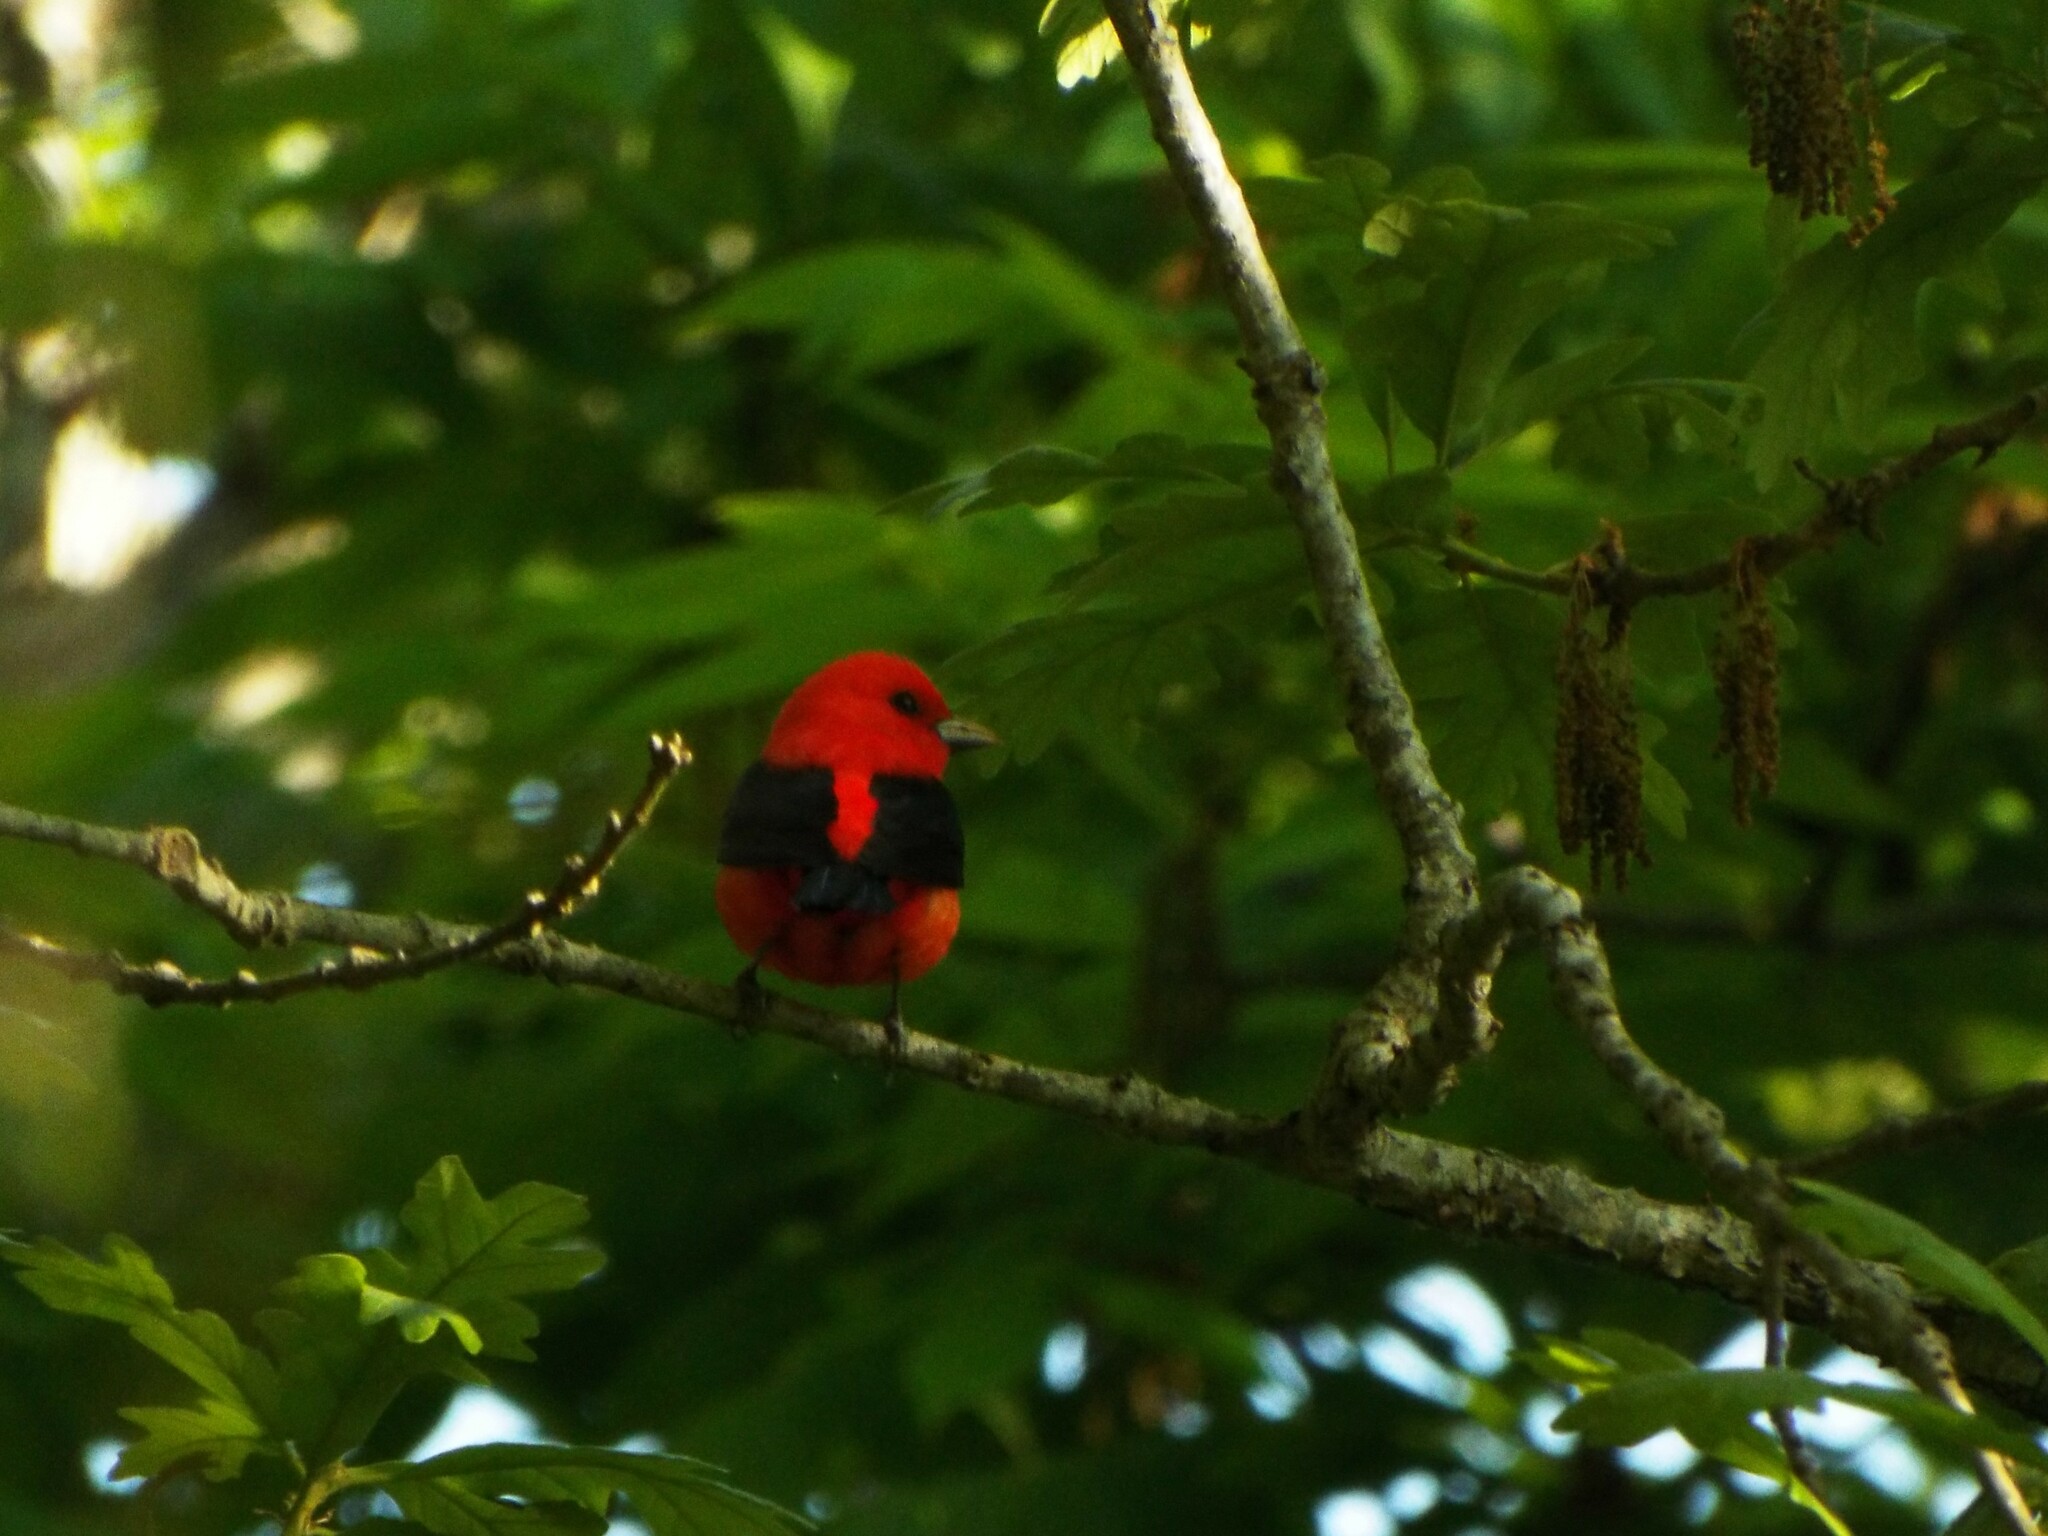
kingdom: Animalia
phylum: Chordata
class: Aves
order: Passeriformes
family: Cardinalidae
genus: Piranga
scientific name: Piranga olivacea
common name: Scarlet tanager
